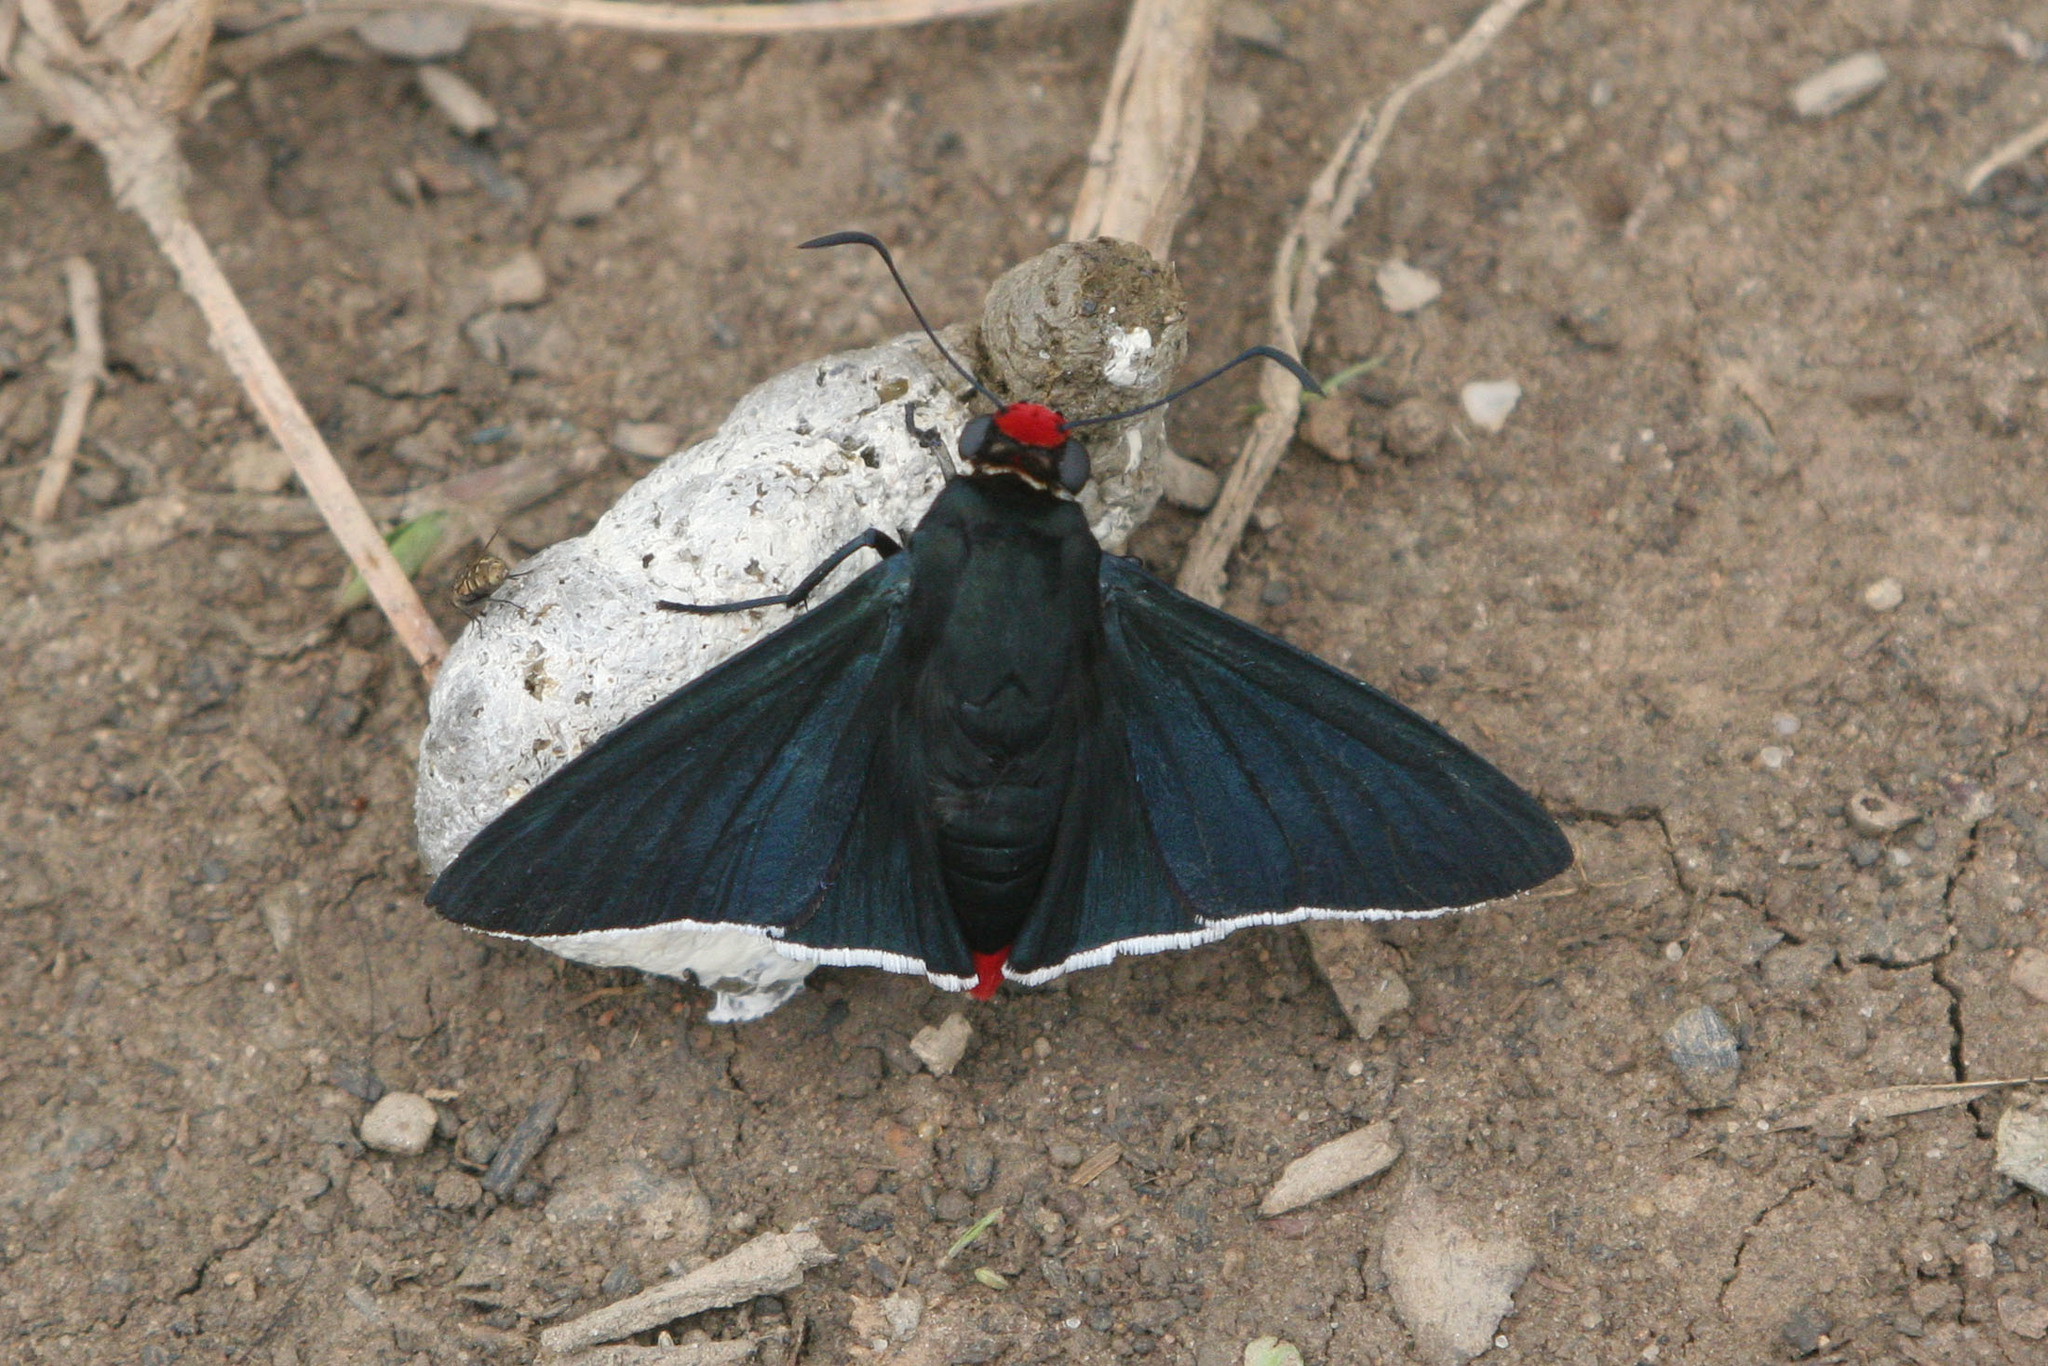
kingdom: Animalia
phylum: Arthropoda
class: Insecta
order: Lepidoptera
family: Hesperiidae
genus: Pyrrhopyge
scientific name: Pyrrhopyge phidias
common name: Original firetip
